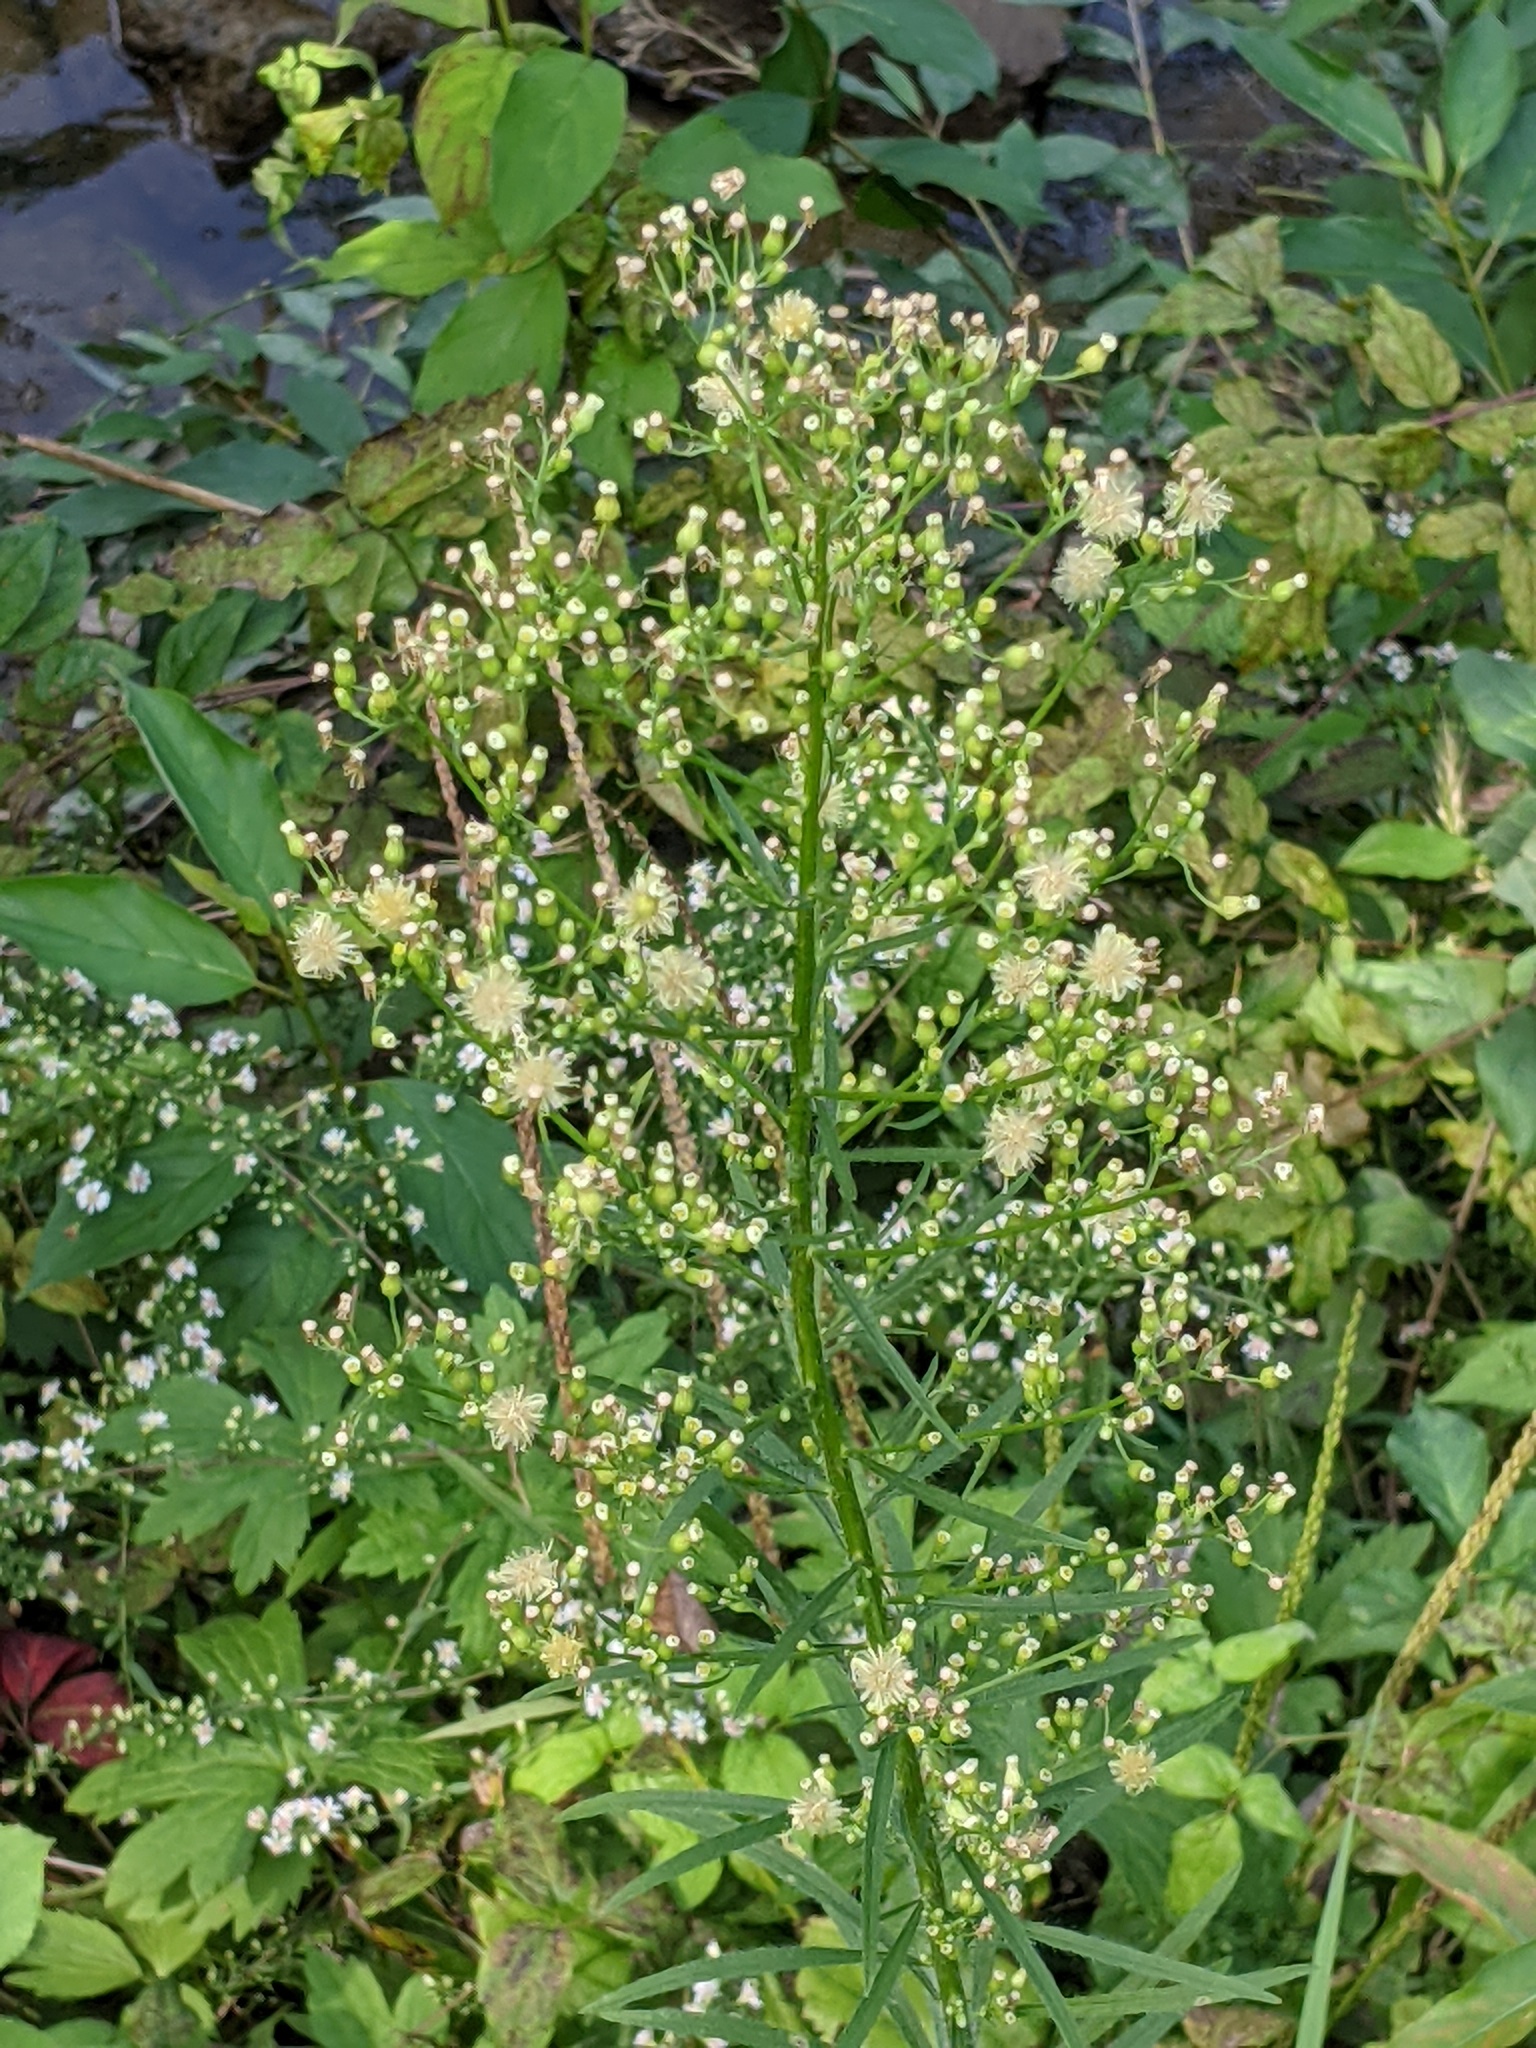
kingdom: Plantae
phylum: Tracheophyta
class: Magnoliopsida
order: Asterales
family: Asteraceae
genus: Erigeron
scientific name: Erigeron canadensis
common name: Canadian fleabane
